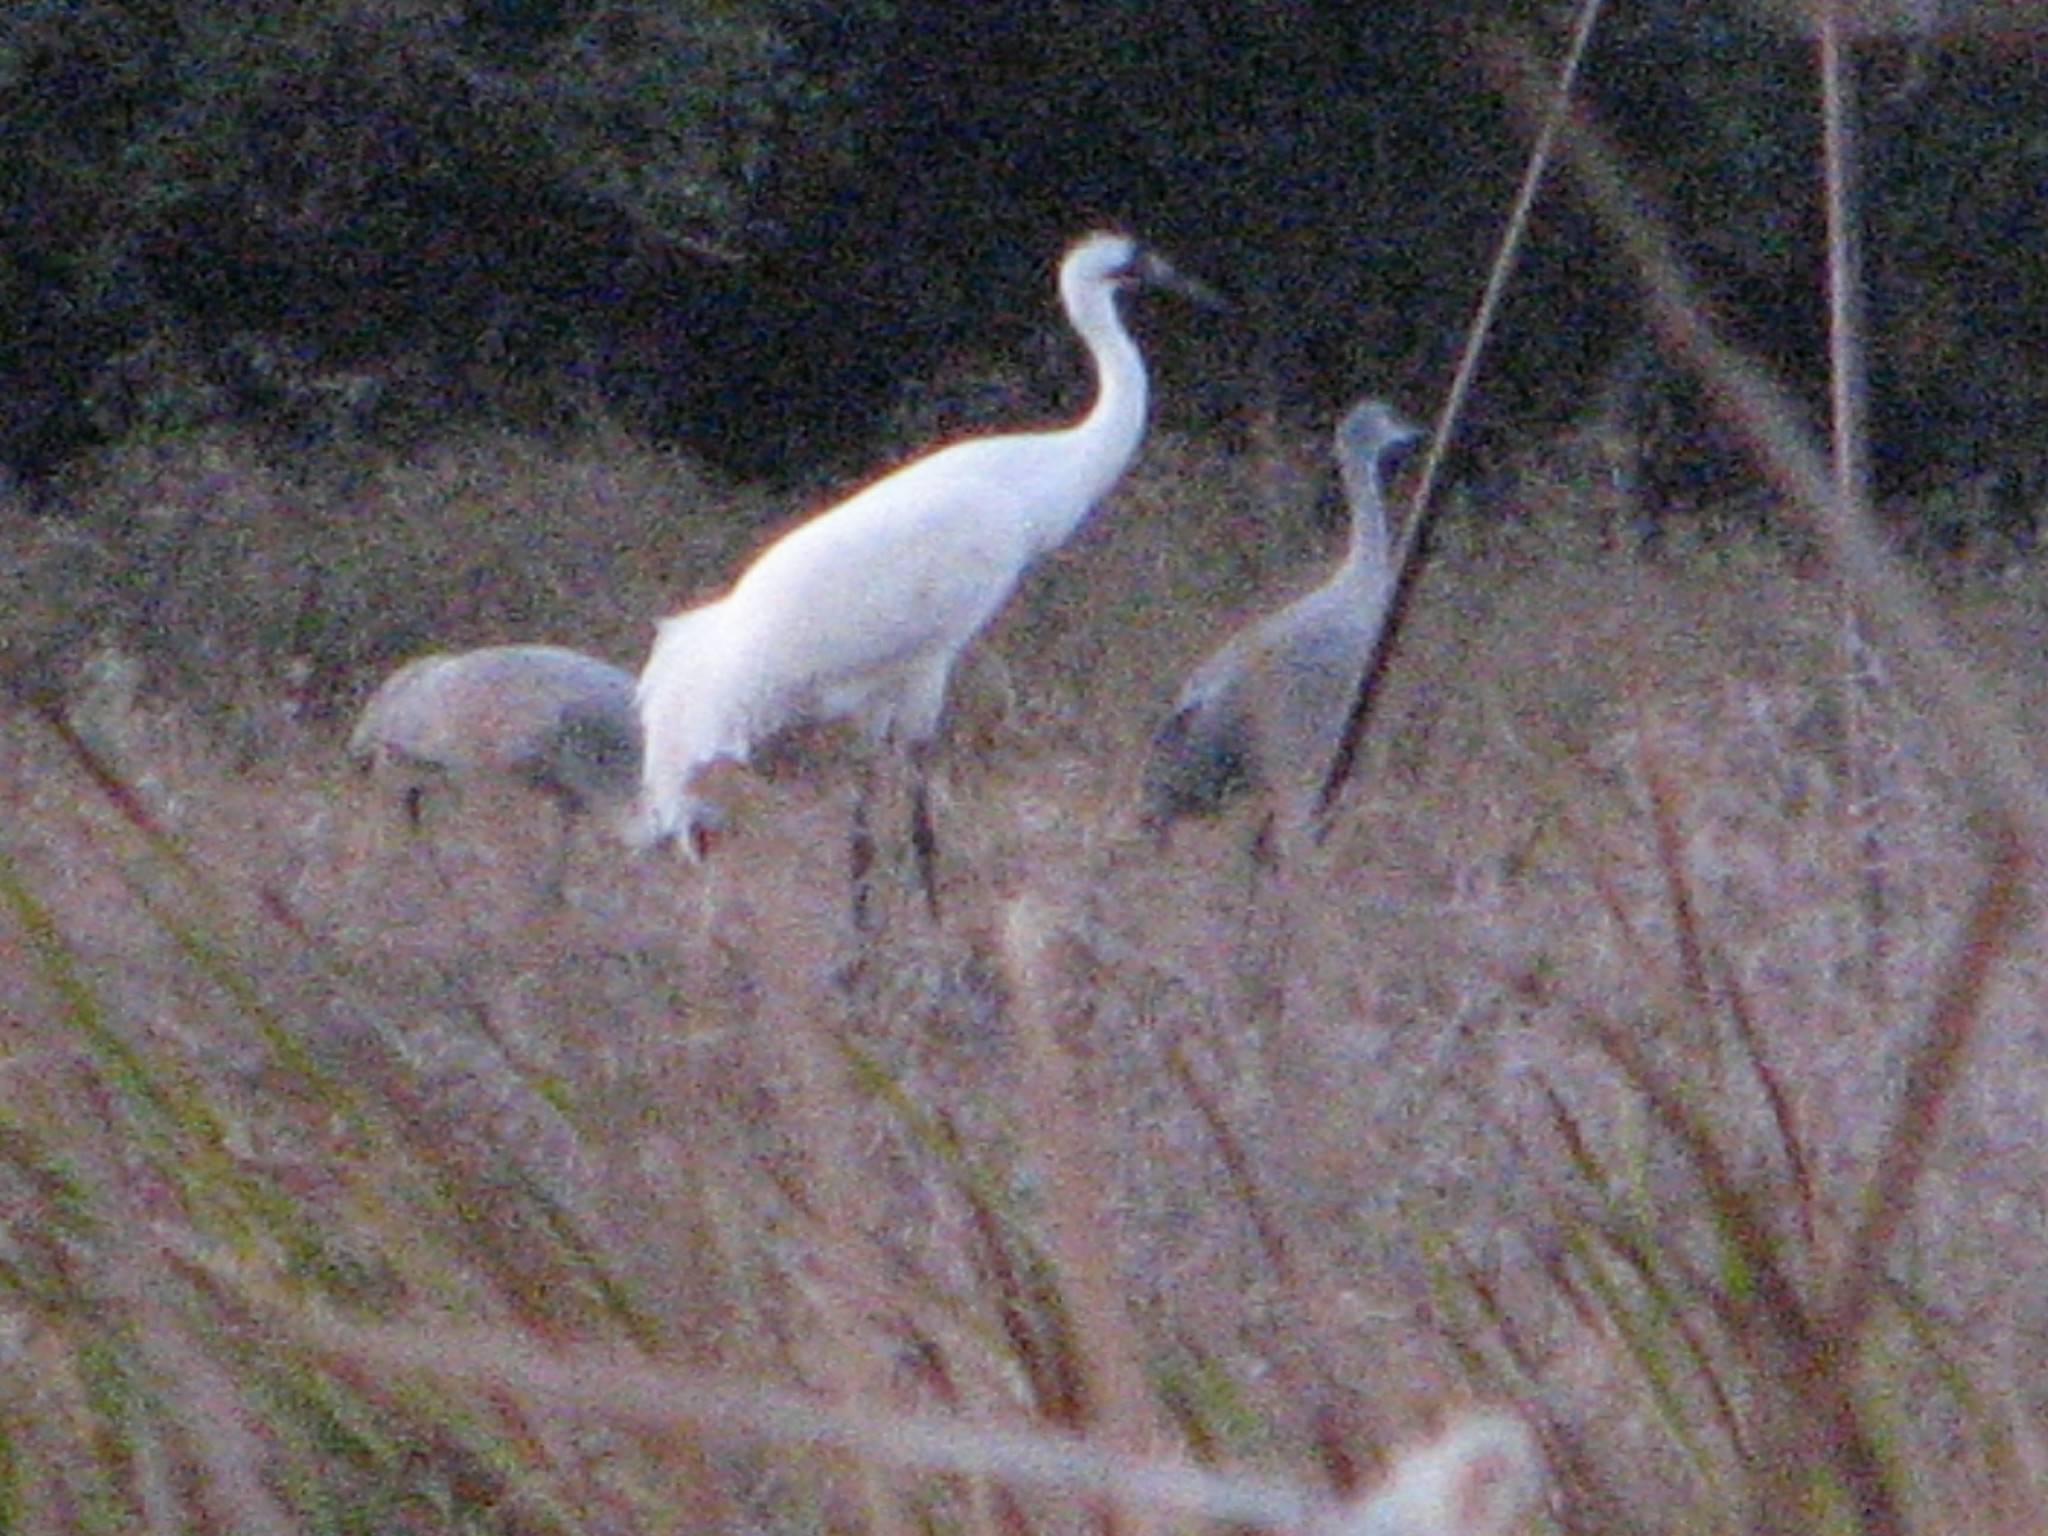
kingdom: Animalia
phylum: Chordata
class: Aves
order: Gruiformes
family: Gruidae
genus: Grus
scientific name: Grus americana
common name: Whooping crane
